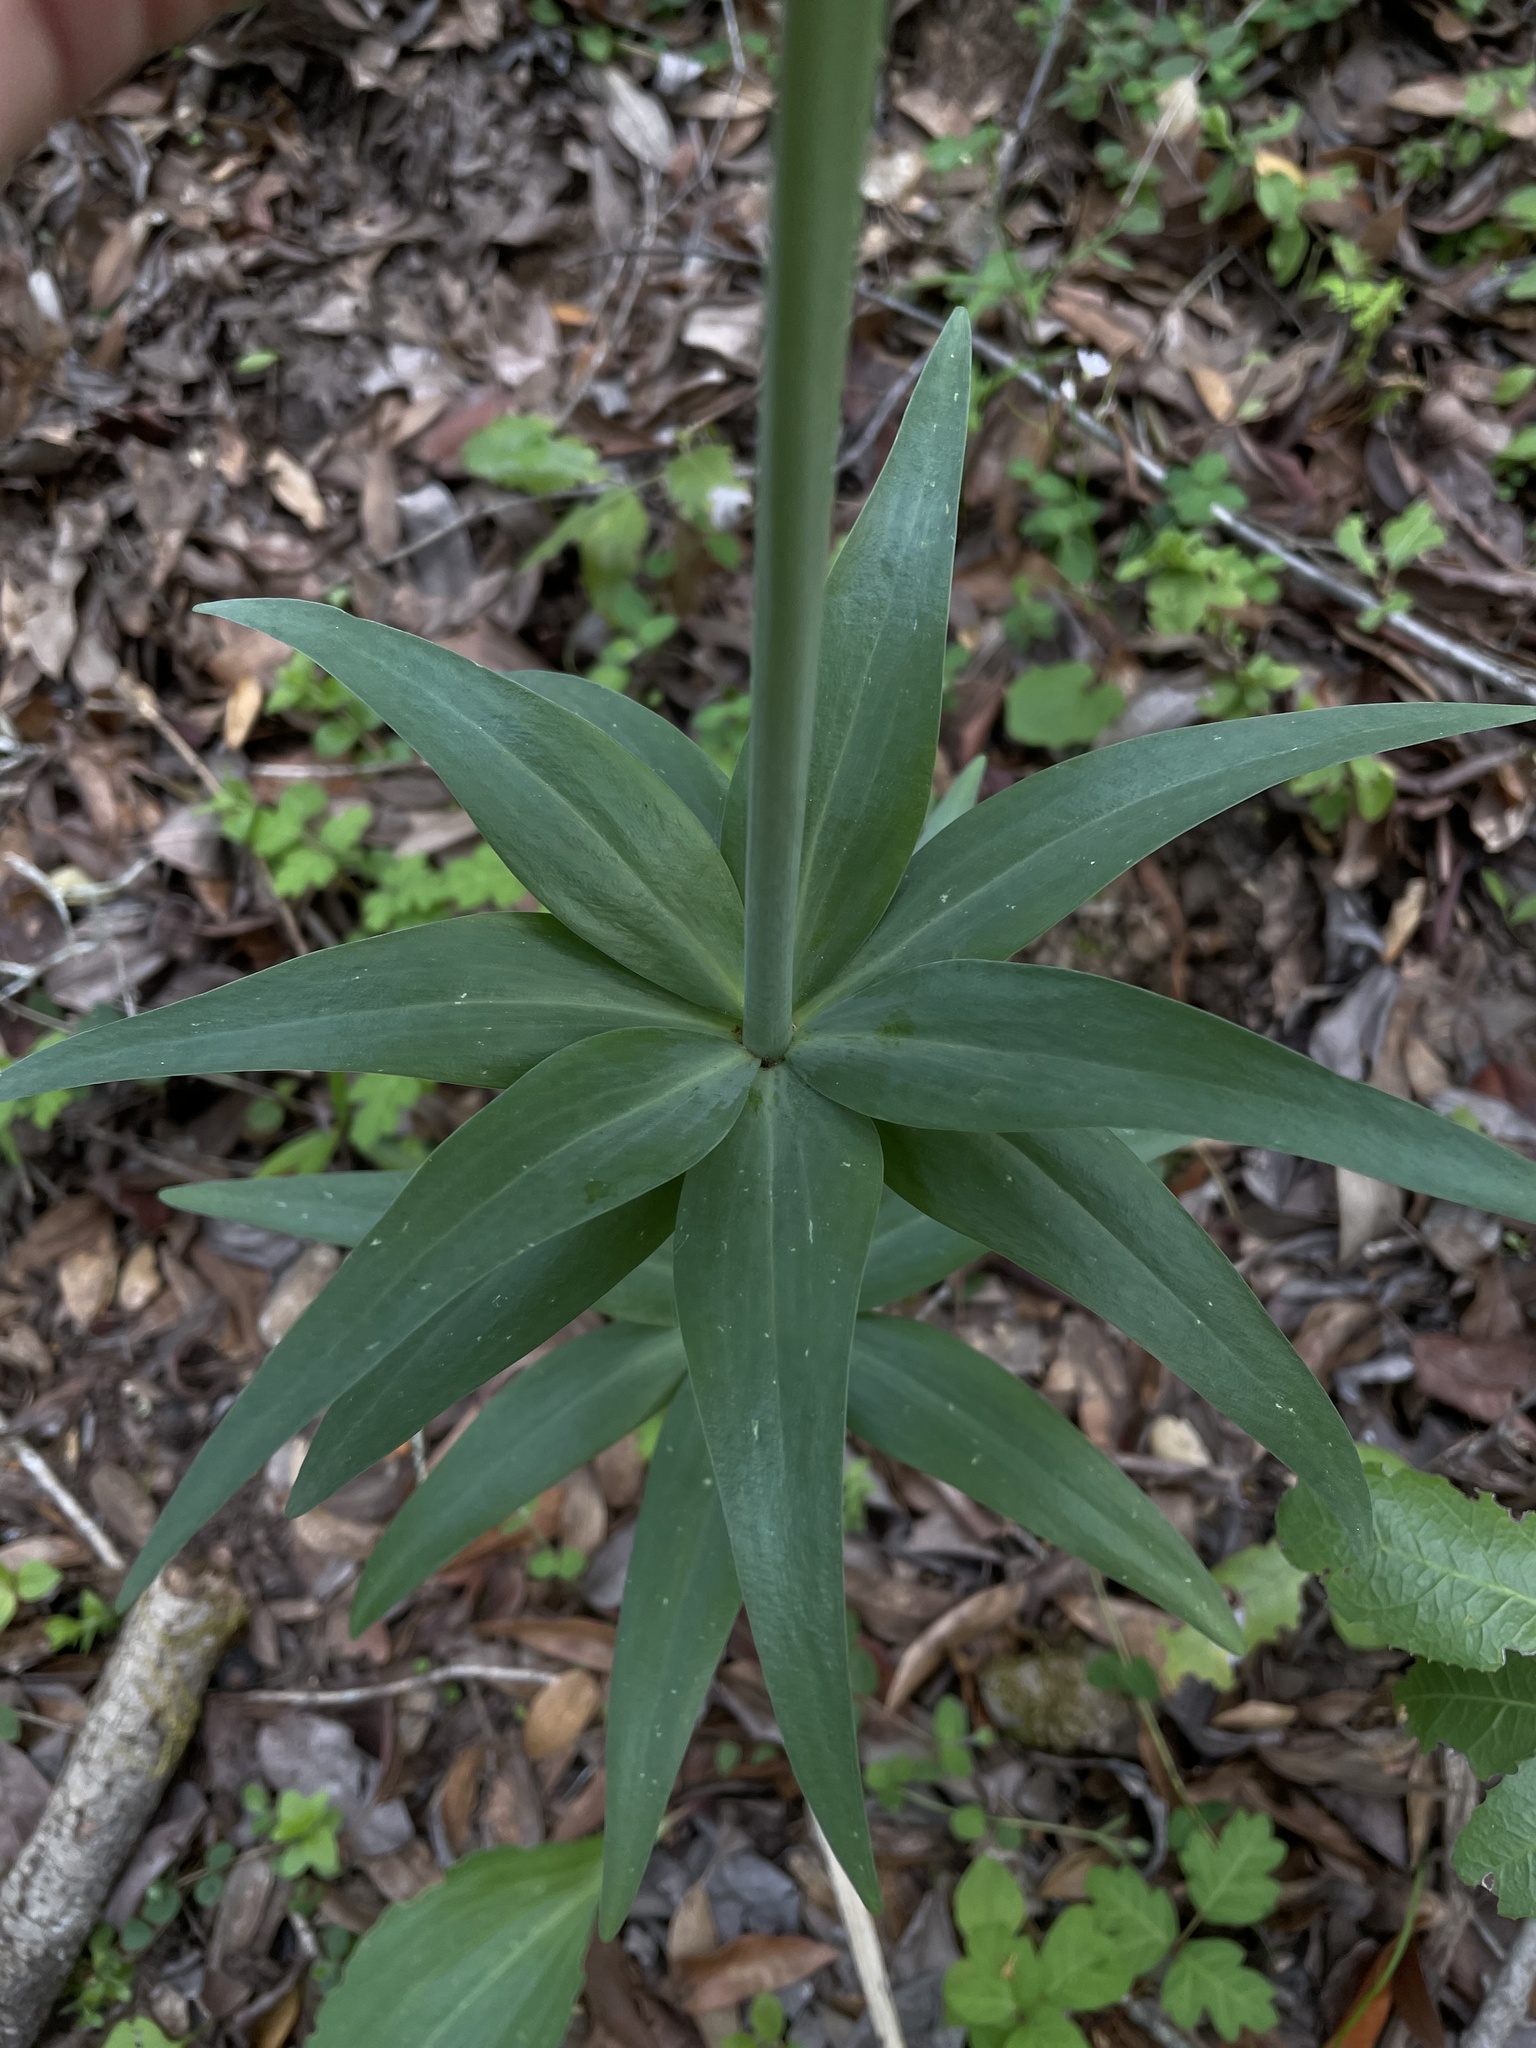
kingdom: Plantae
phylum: Tracheophyta
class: Liliopsida
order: Liliales
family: Liliaceae
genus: Fritillaria
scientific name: Fritillaria affinis
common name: Ojai fritillary
